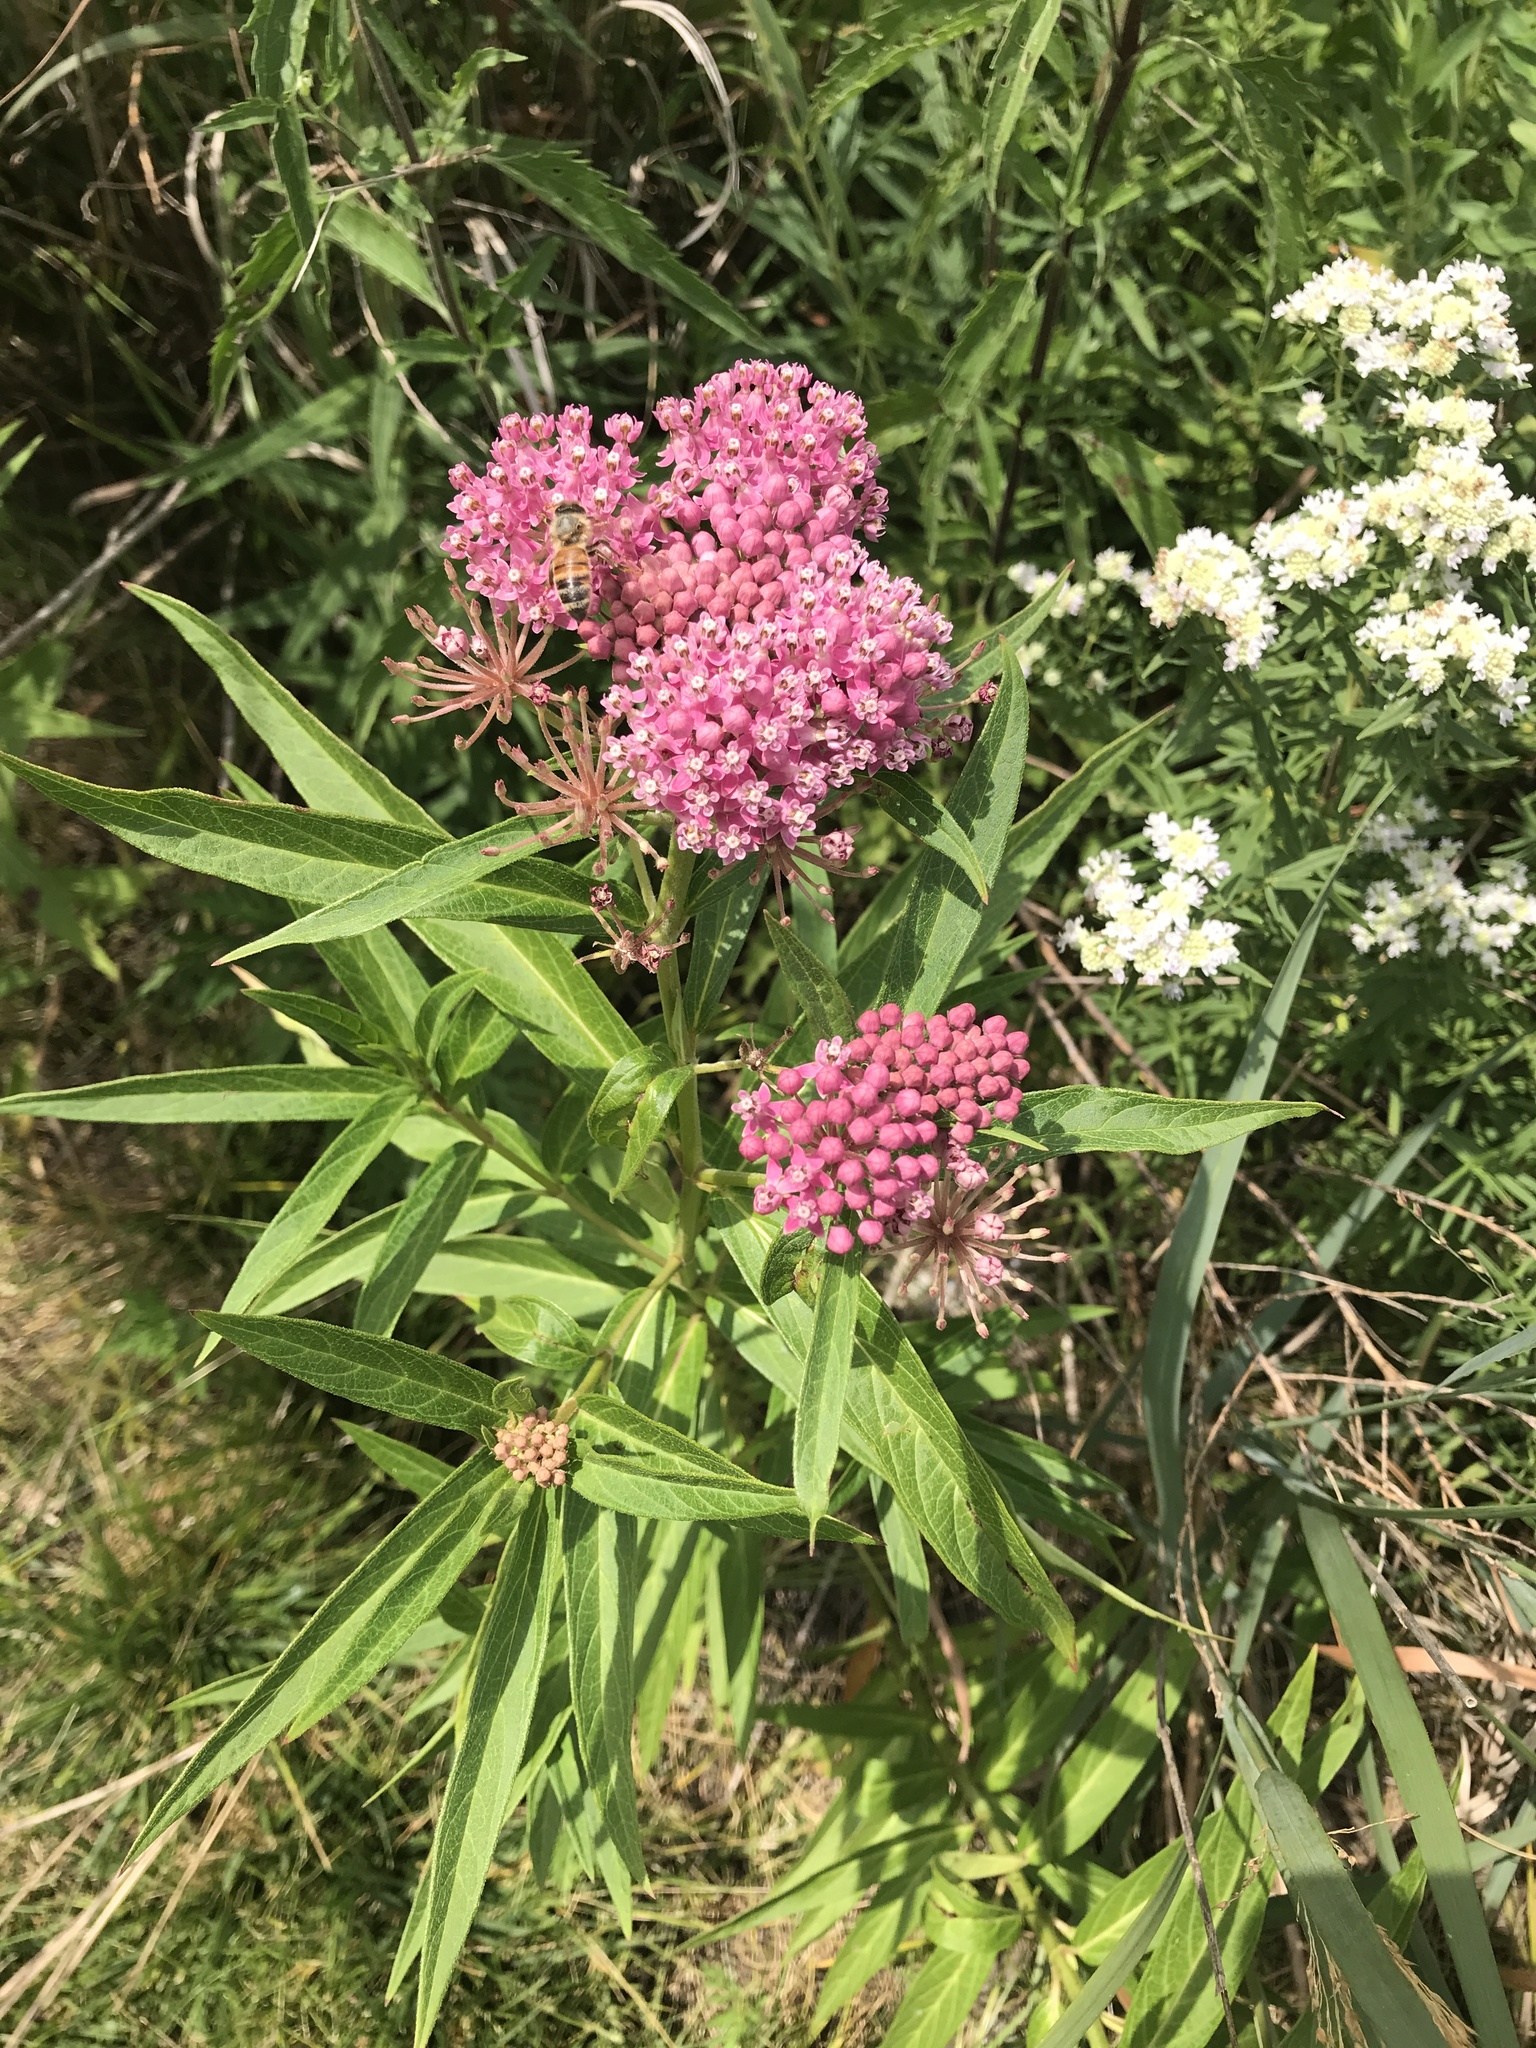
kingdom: Plantae
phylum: Tracheophyta
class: Magnoliopsida
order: Gentianales
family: Apocynaceae
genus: Asclepias
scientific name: Asclepias incarnata
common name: Swamp milkweed
